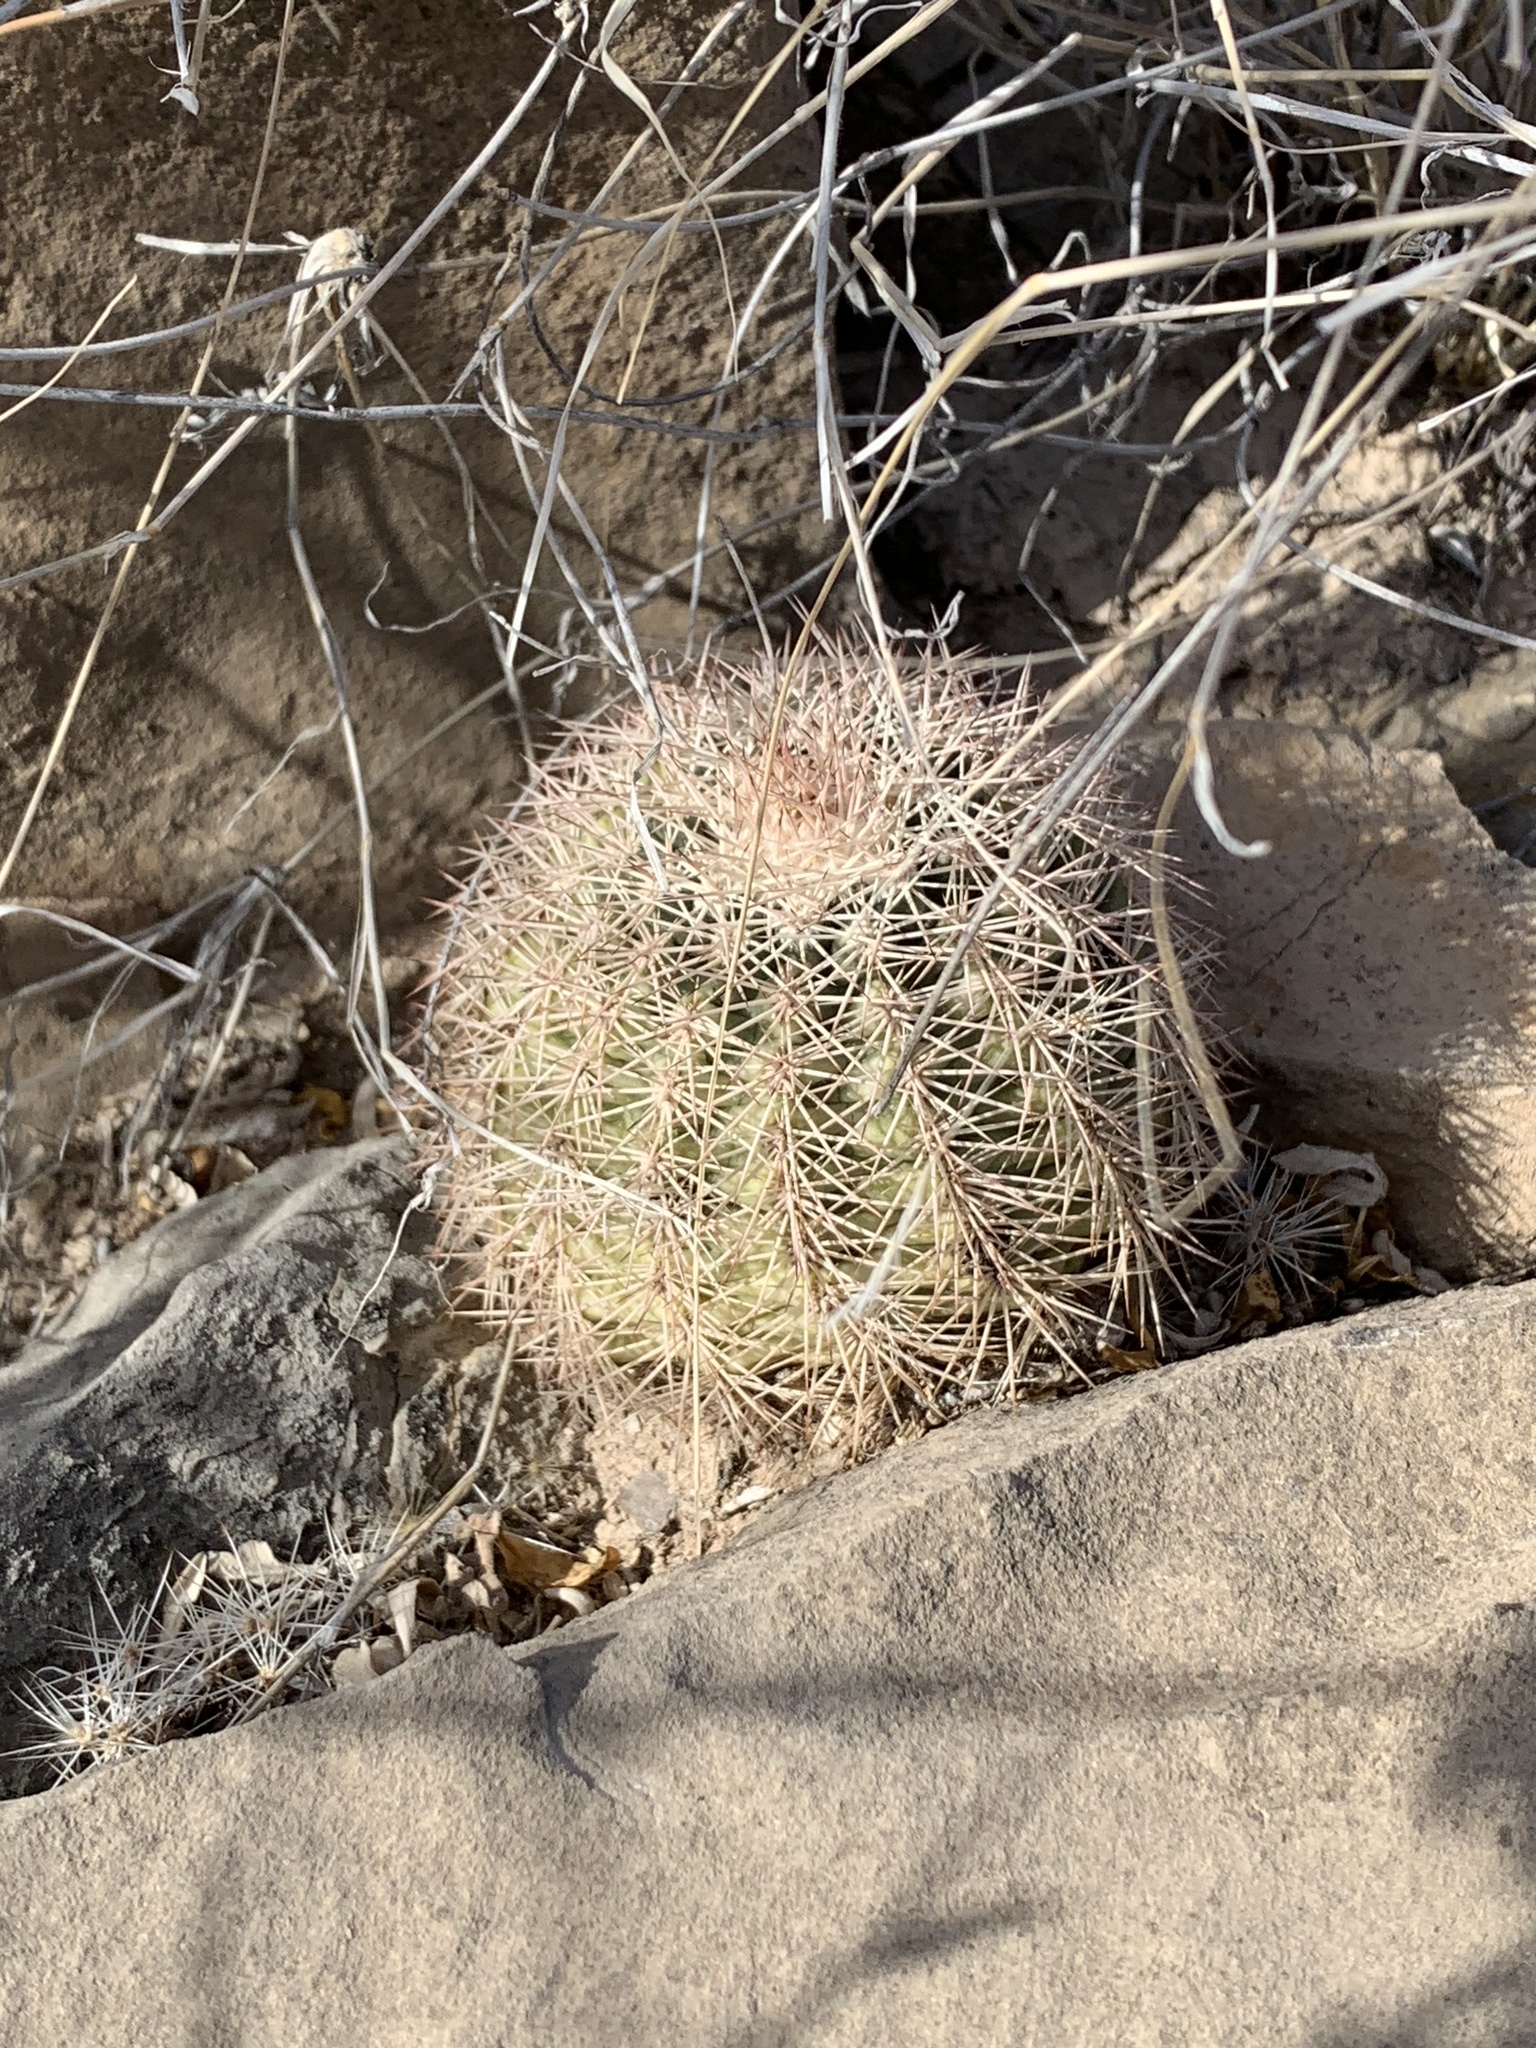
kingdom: Plantae
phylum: Tracheophyta
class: Magnoliopsida
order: Caryophyllales
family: Cactaceae
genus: Echinocereus
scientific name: Echinocereus dasyacanthus
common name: Spiny hedgehog cactus
